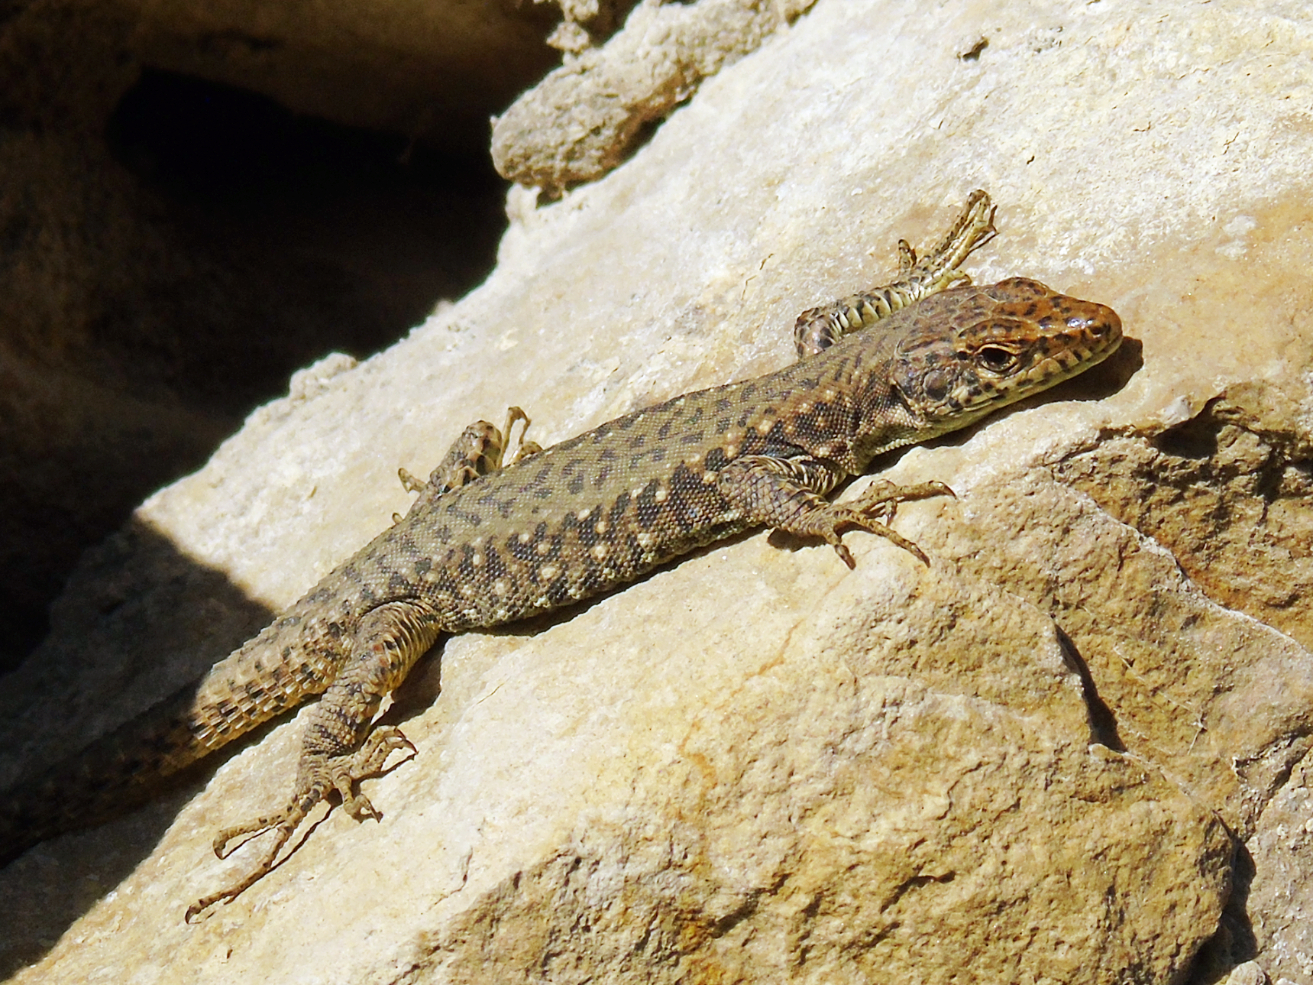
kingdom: Animalia
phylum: Chordata
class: Squamata
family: Lacertidae
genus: Darevskia
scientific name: Darevskia rudis
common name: Spiny-tailed lizard
